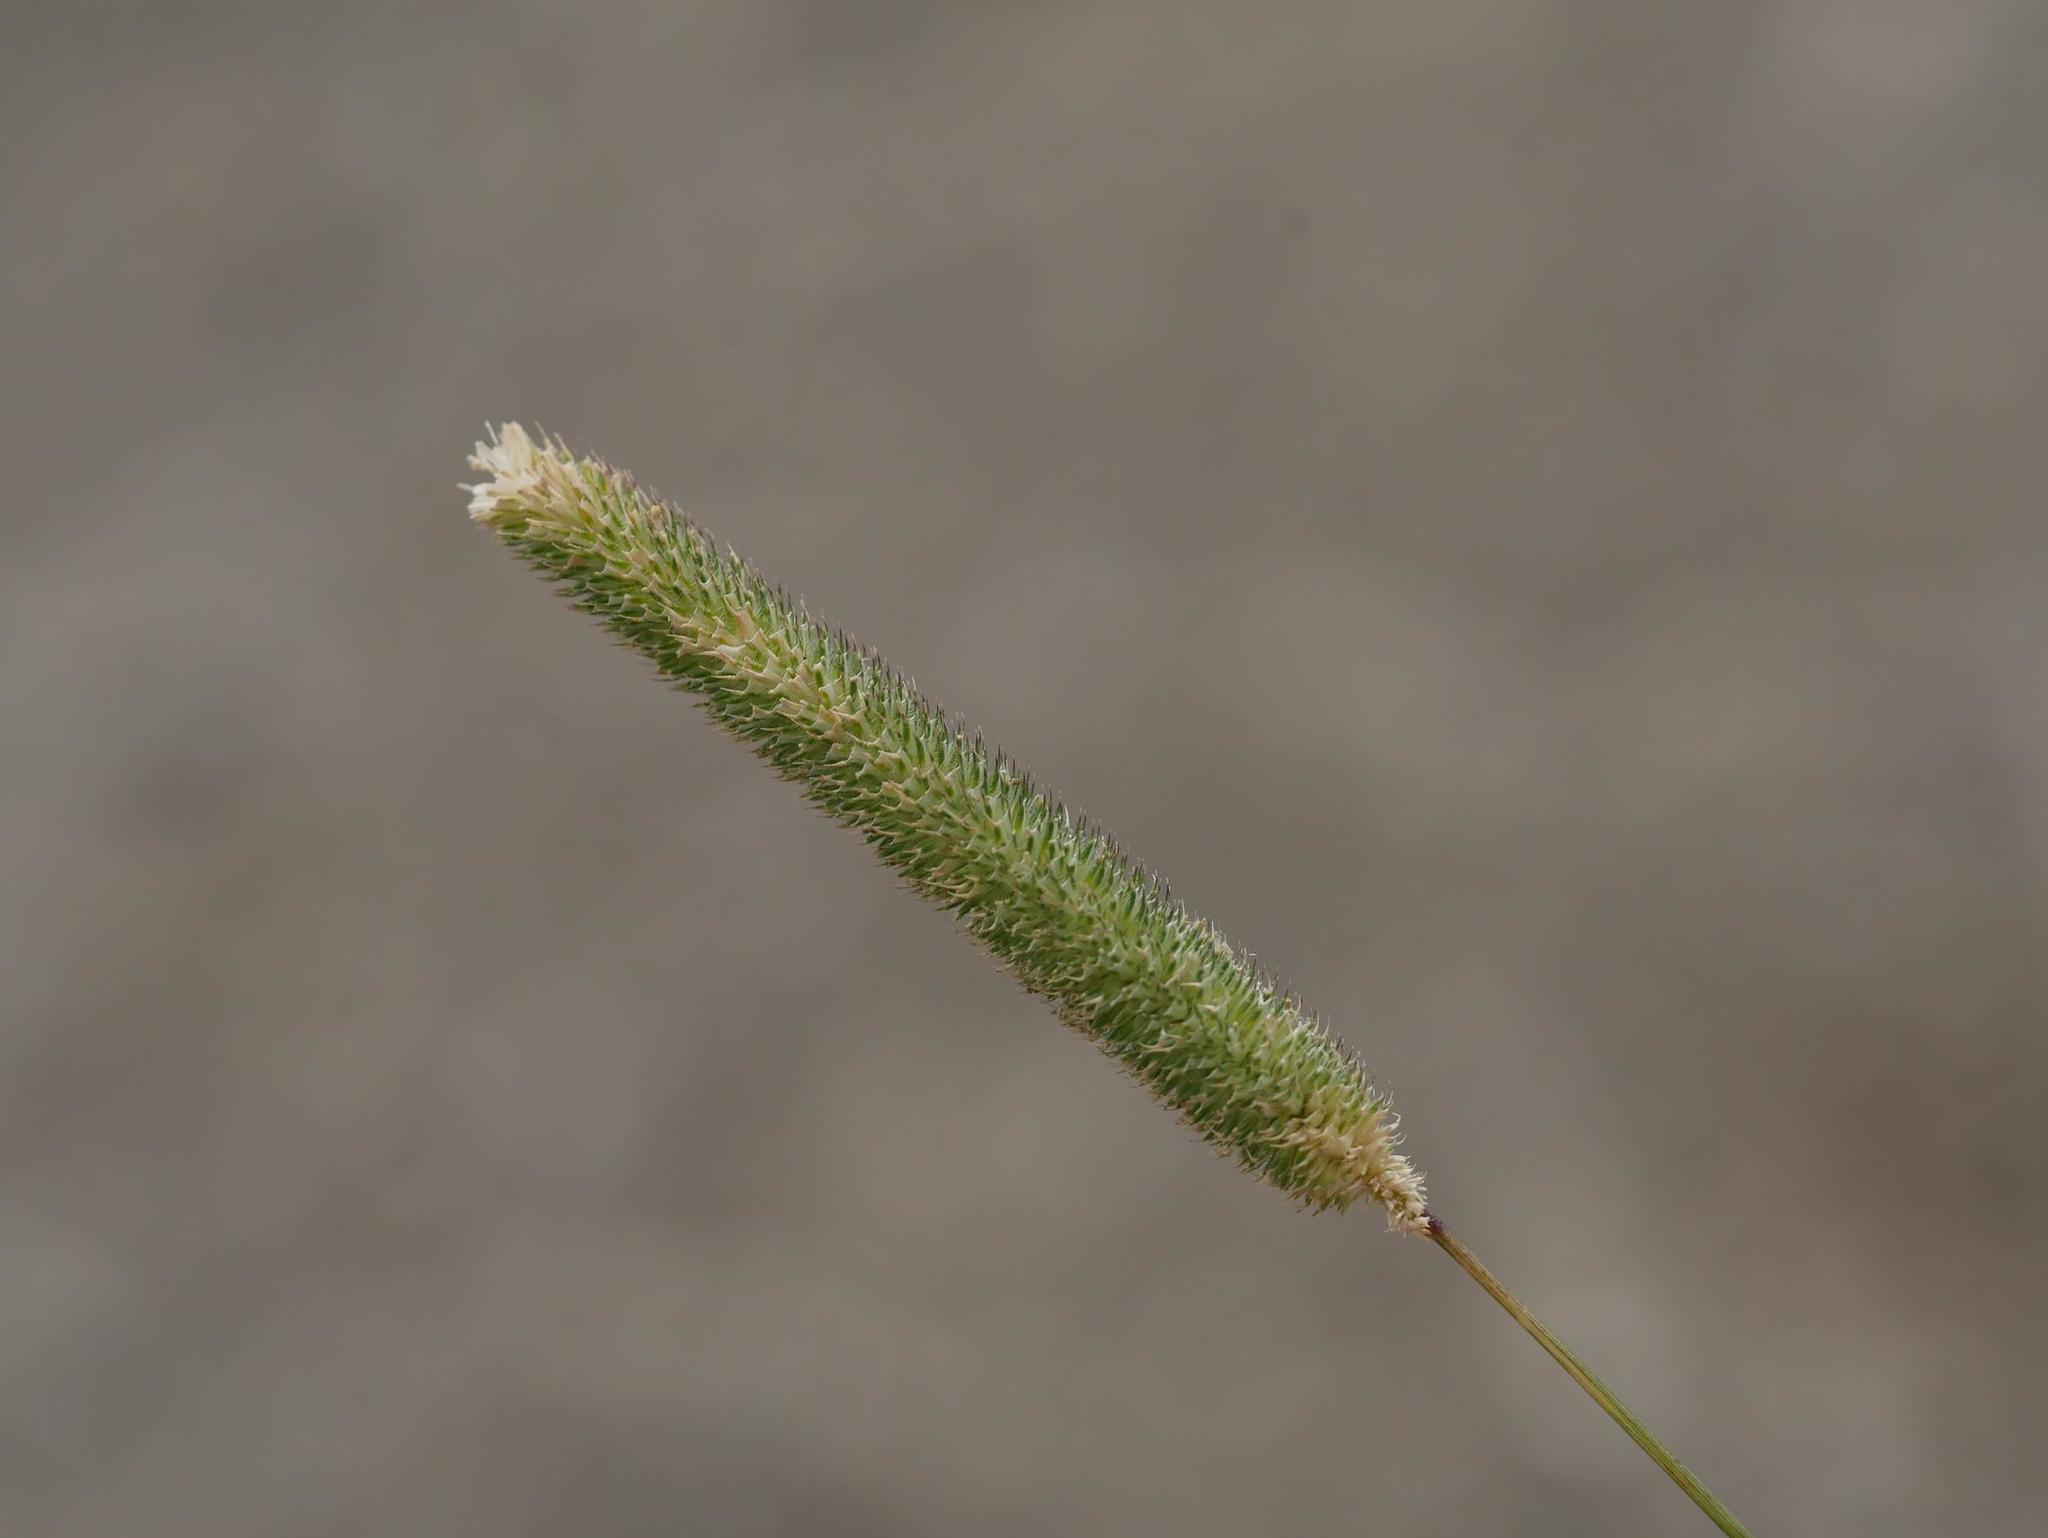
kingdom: Plantae
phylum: Tracheophyta
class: Liliopsida
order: Poales
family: Poaceae
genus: Phleum
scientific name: Phleum pratense
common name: Timothy grass
